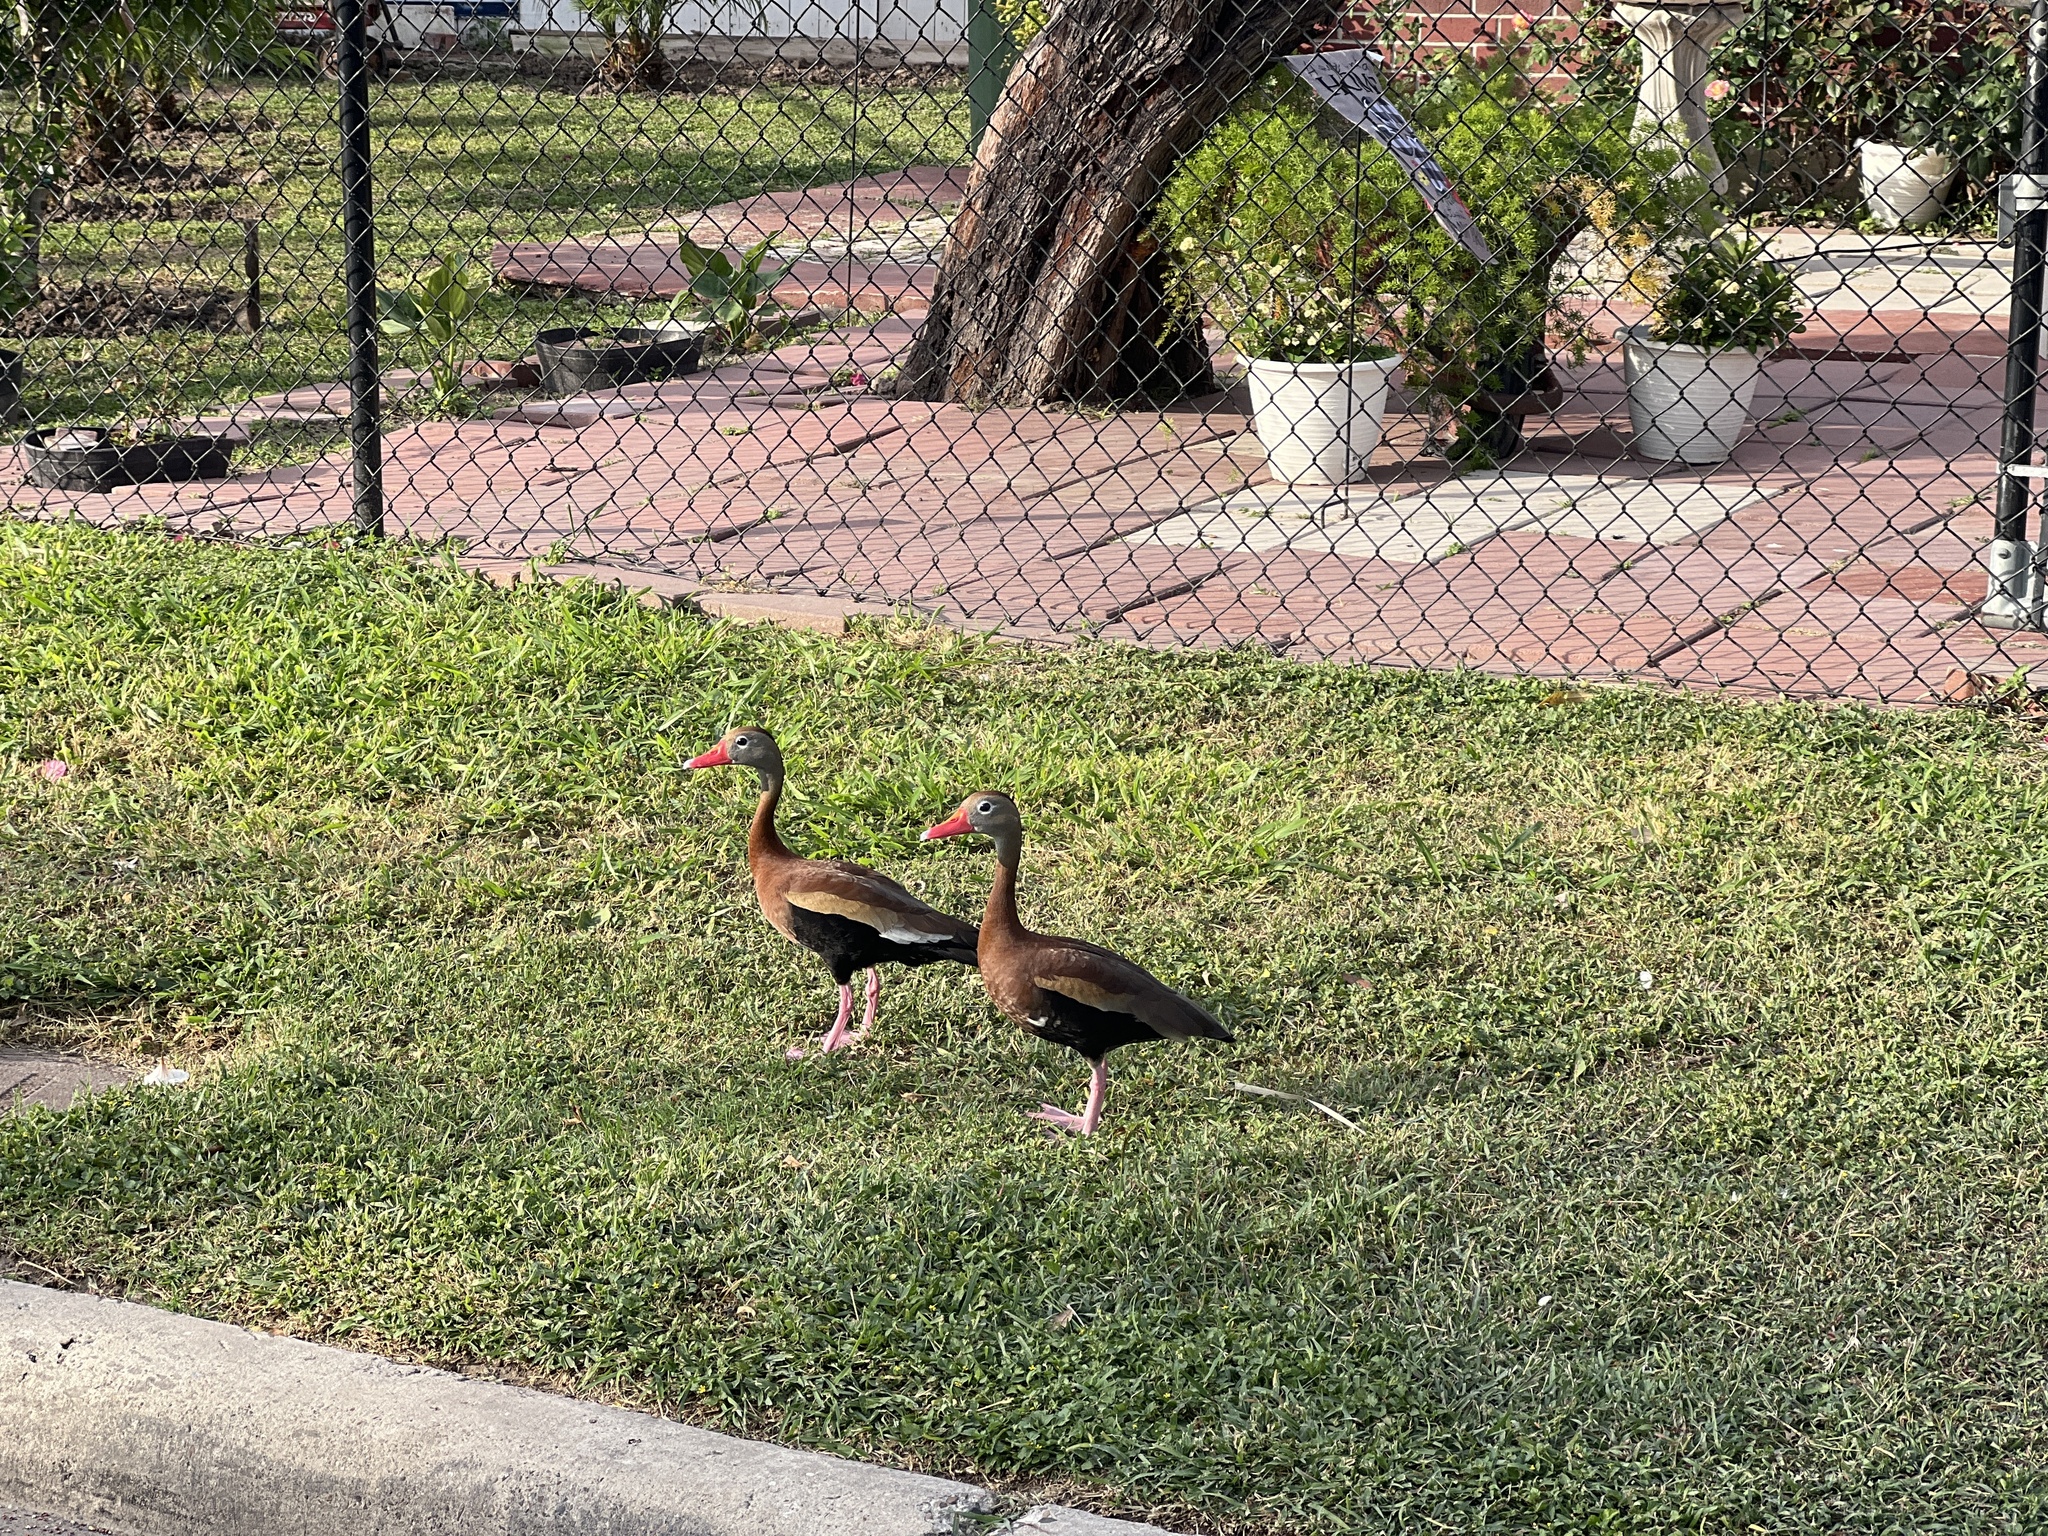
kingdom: Animalia
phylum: Chordata
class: Aves
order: Anseriformes
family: Anatidae
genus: Dendrocygna
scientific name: Dendrocygna autumnalis
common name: Black-bellied whistling duck
